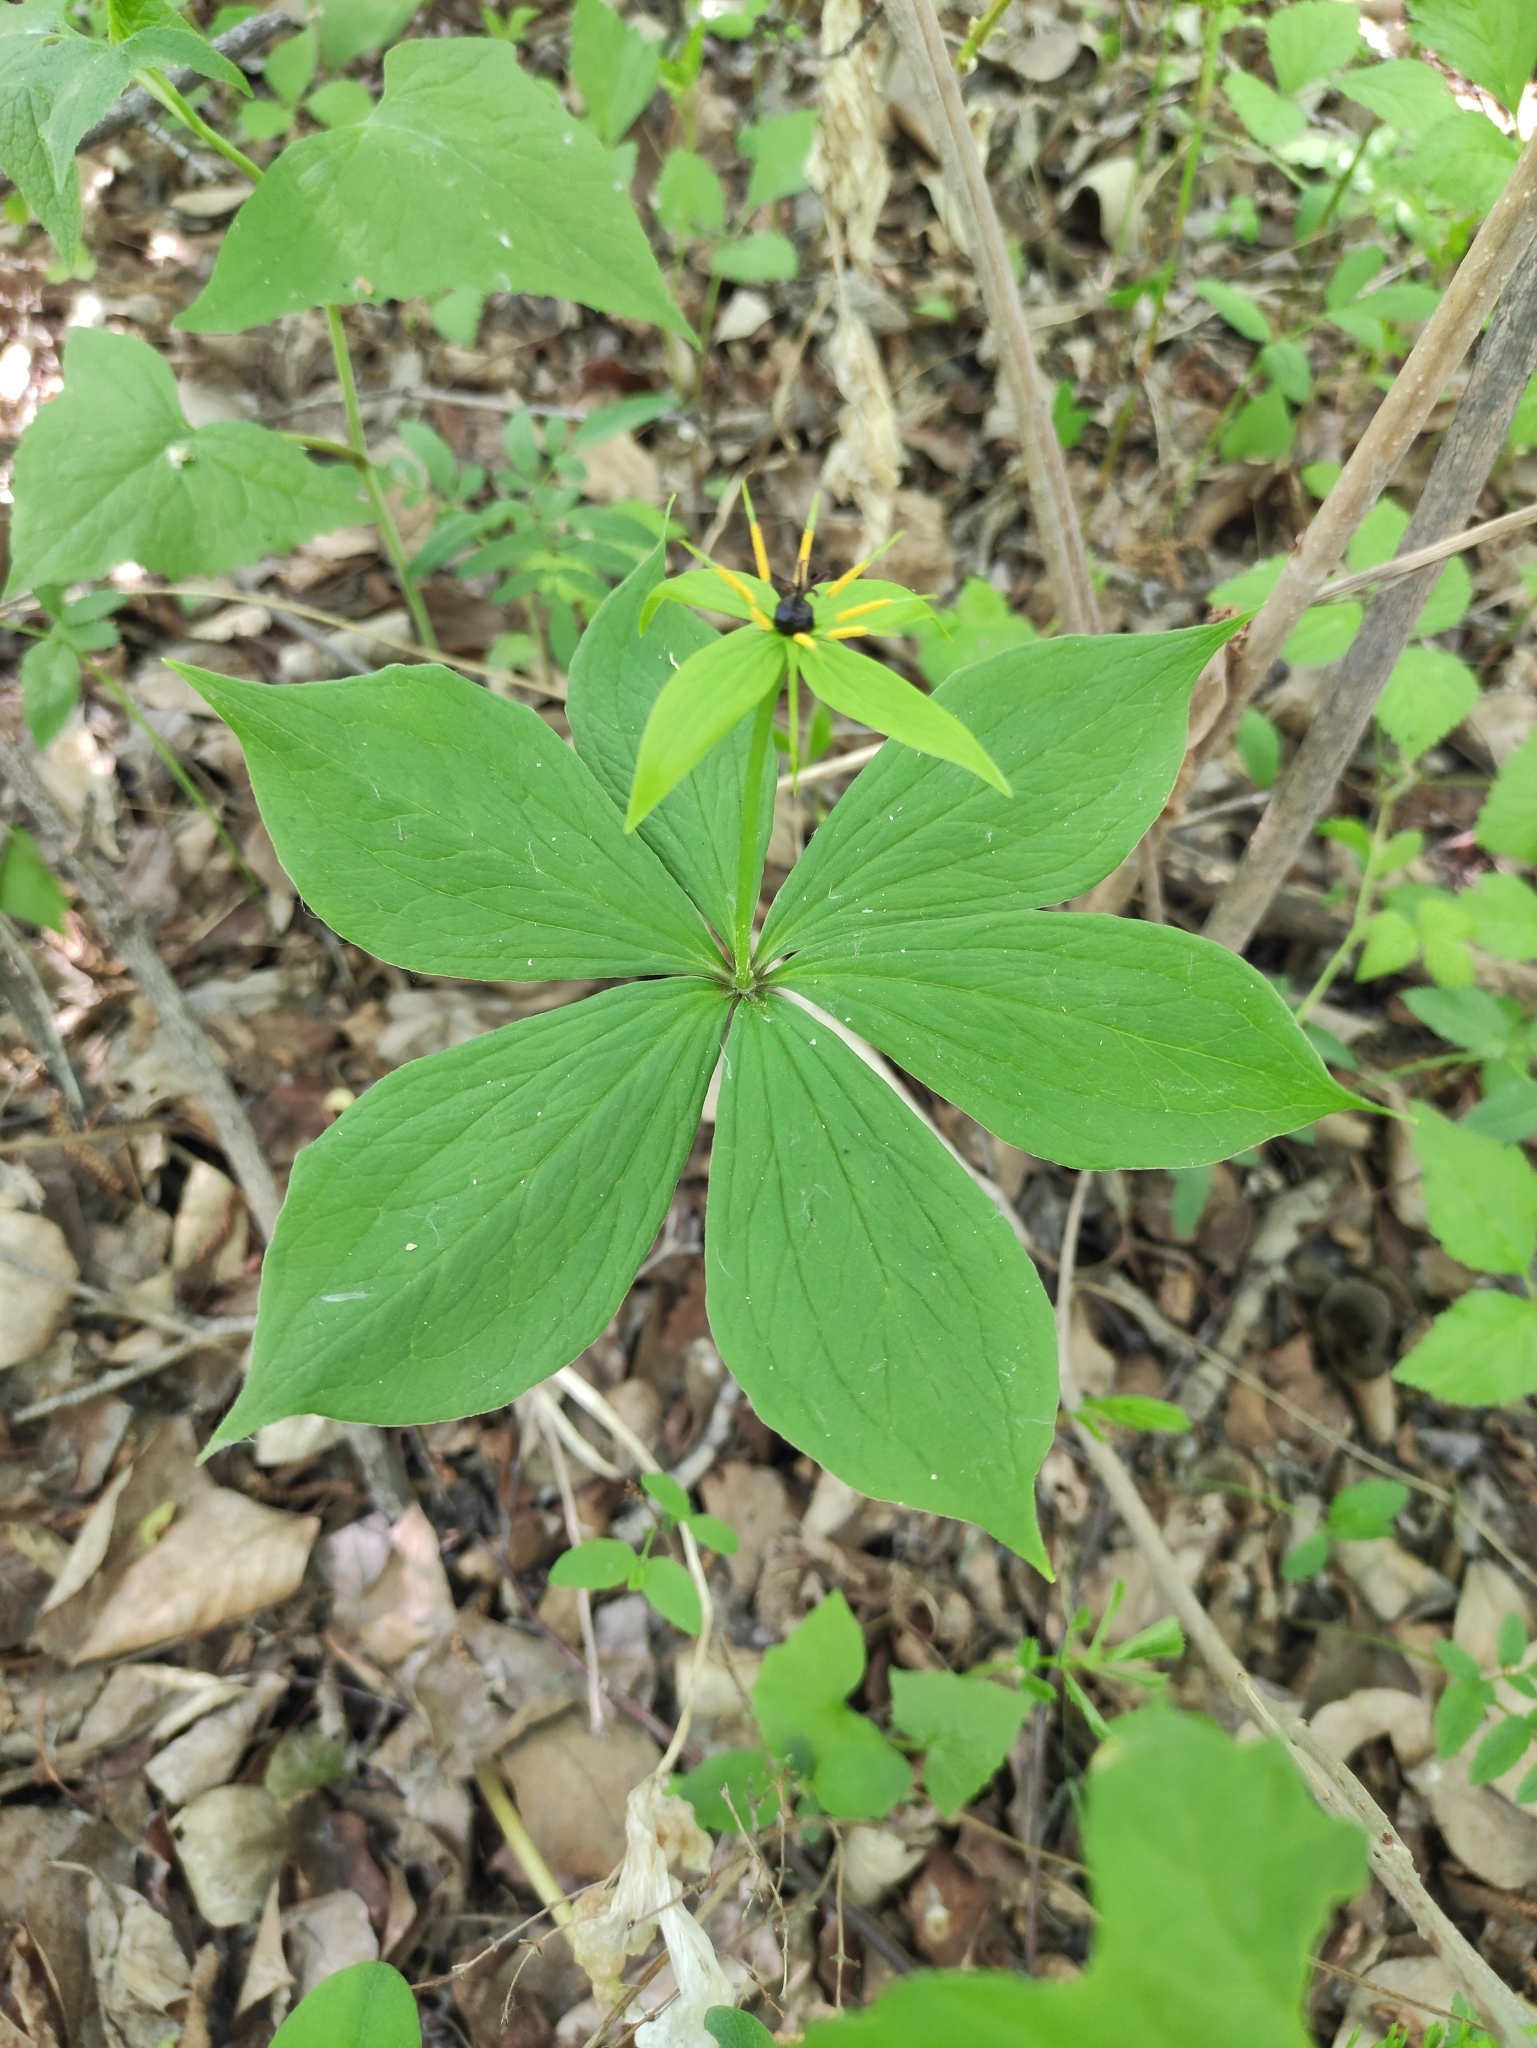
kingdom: Plantae
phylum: Tracheophyta
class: Liliopsida
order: Liliales
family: Melanthiaceae
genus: Paris
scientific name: Paris verticillata
